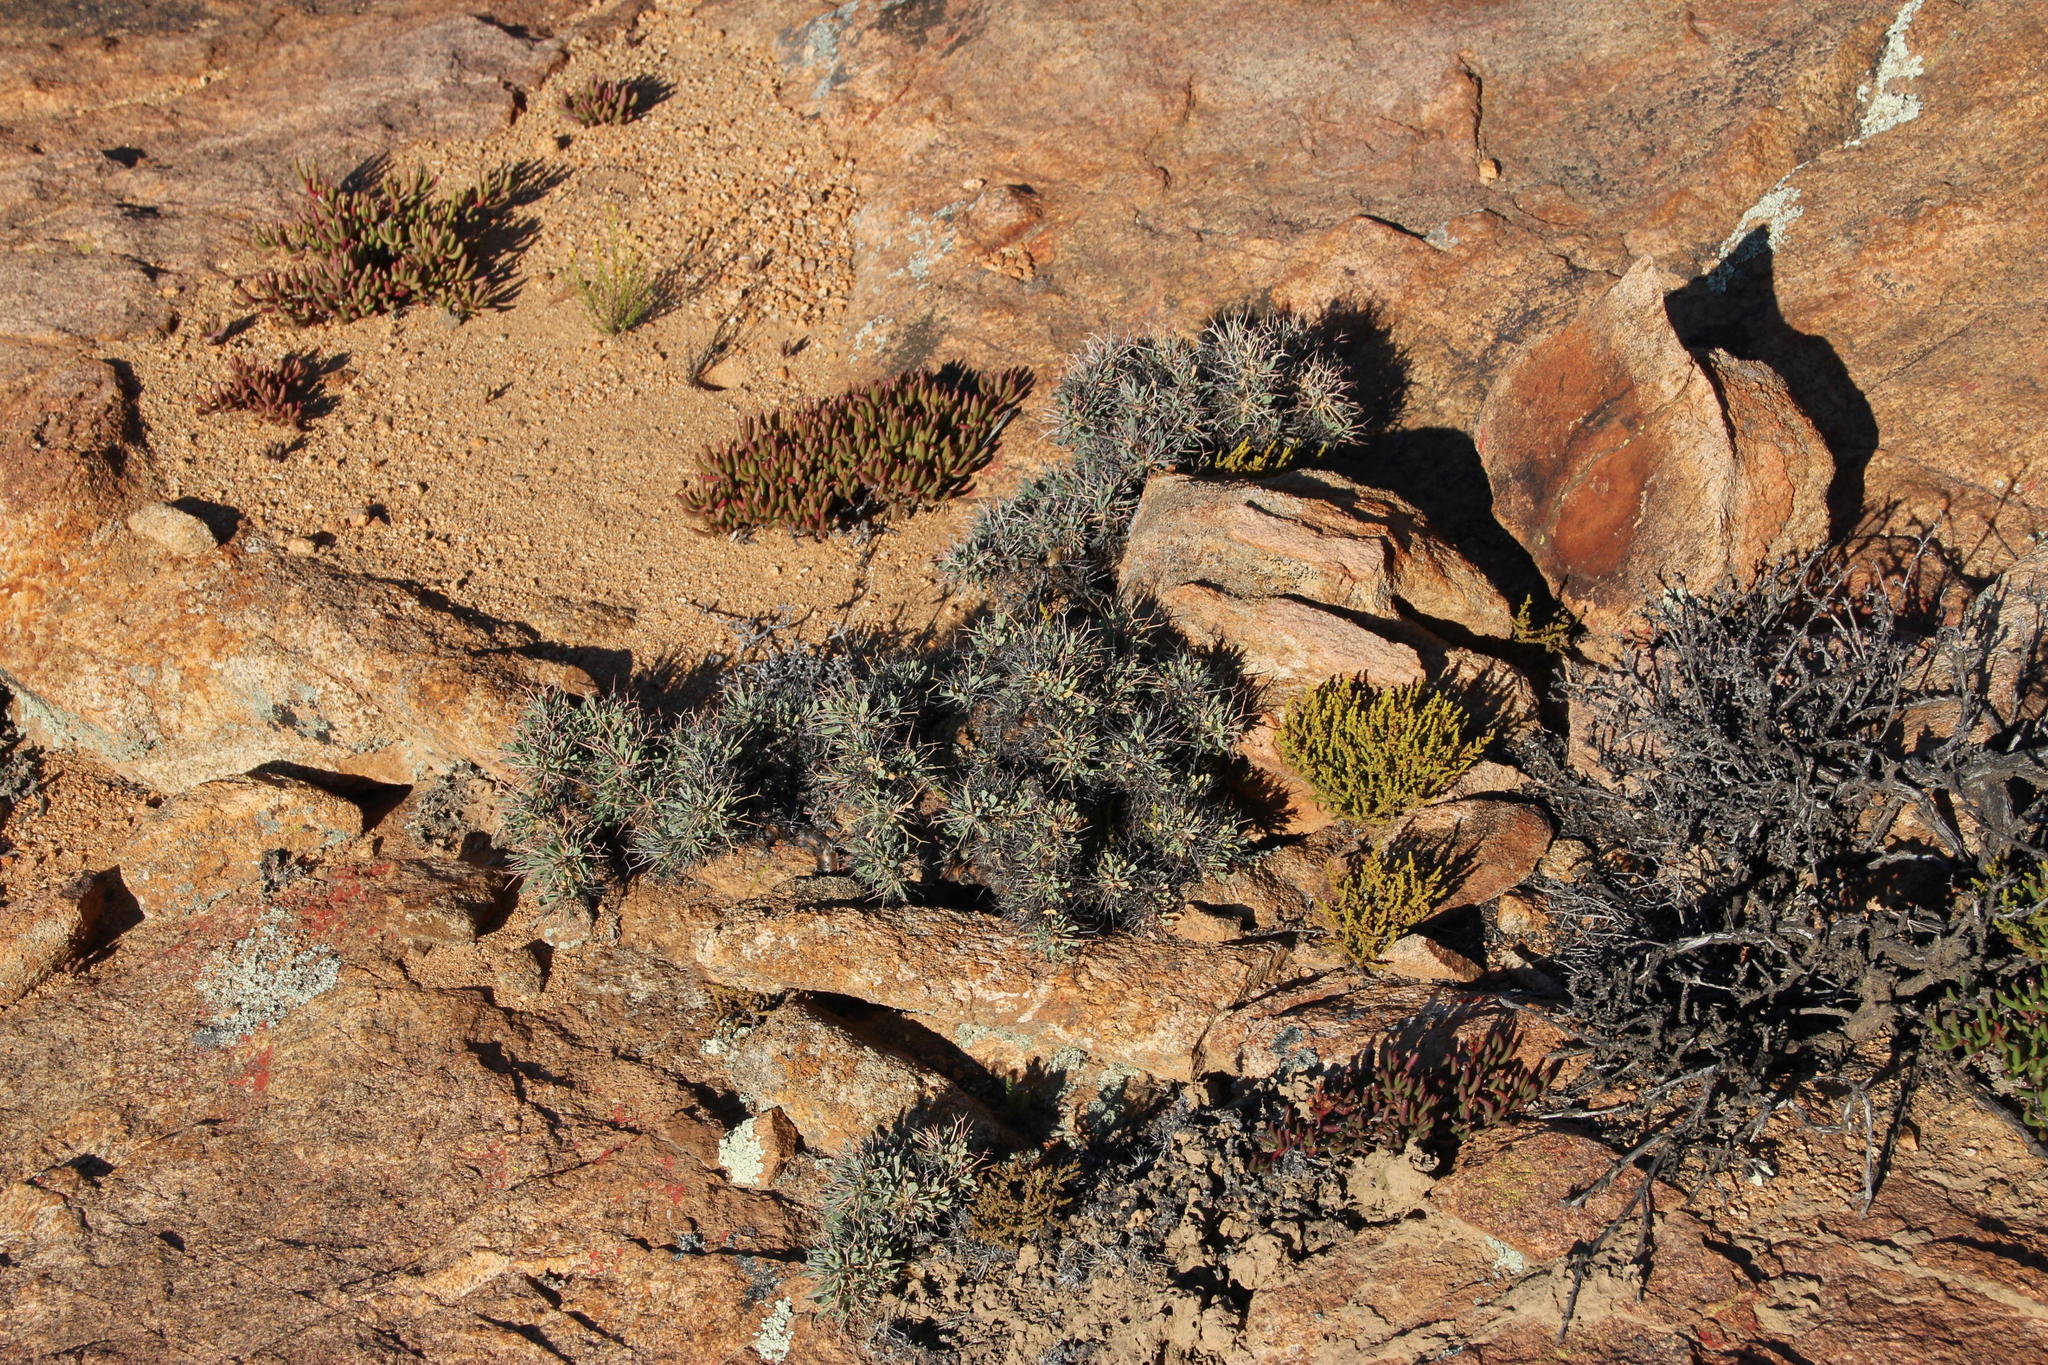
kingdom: Plantae
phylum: Tracheophyta
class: Magnoliopsida
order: Asterales
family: Asteraceae
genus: Othonna
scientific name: Othonna euphorbioides
